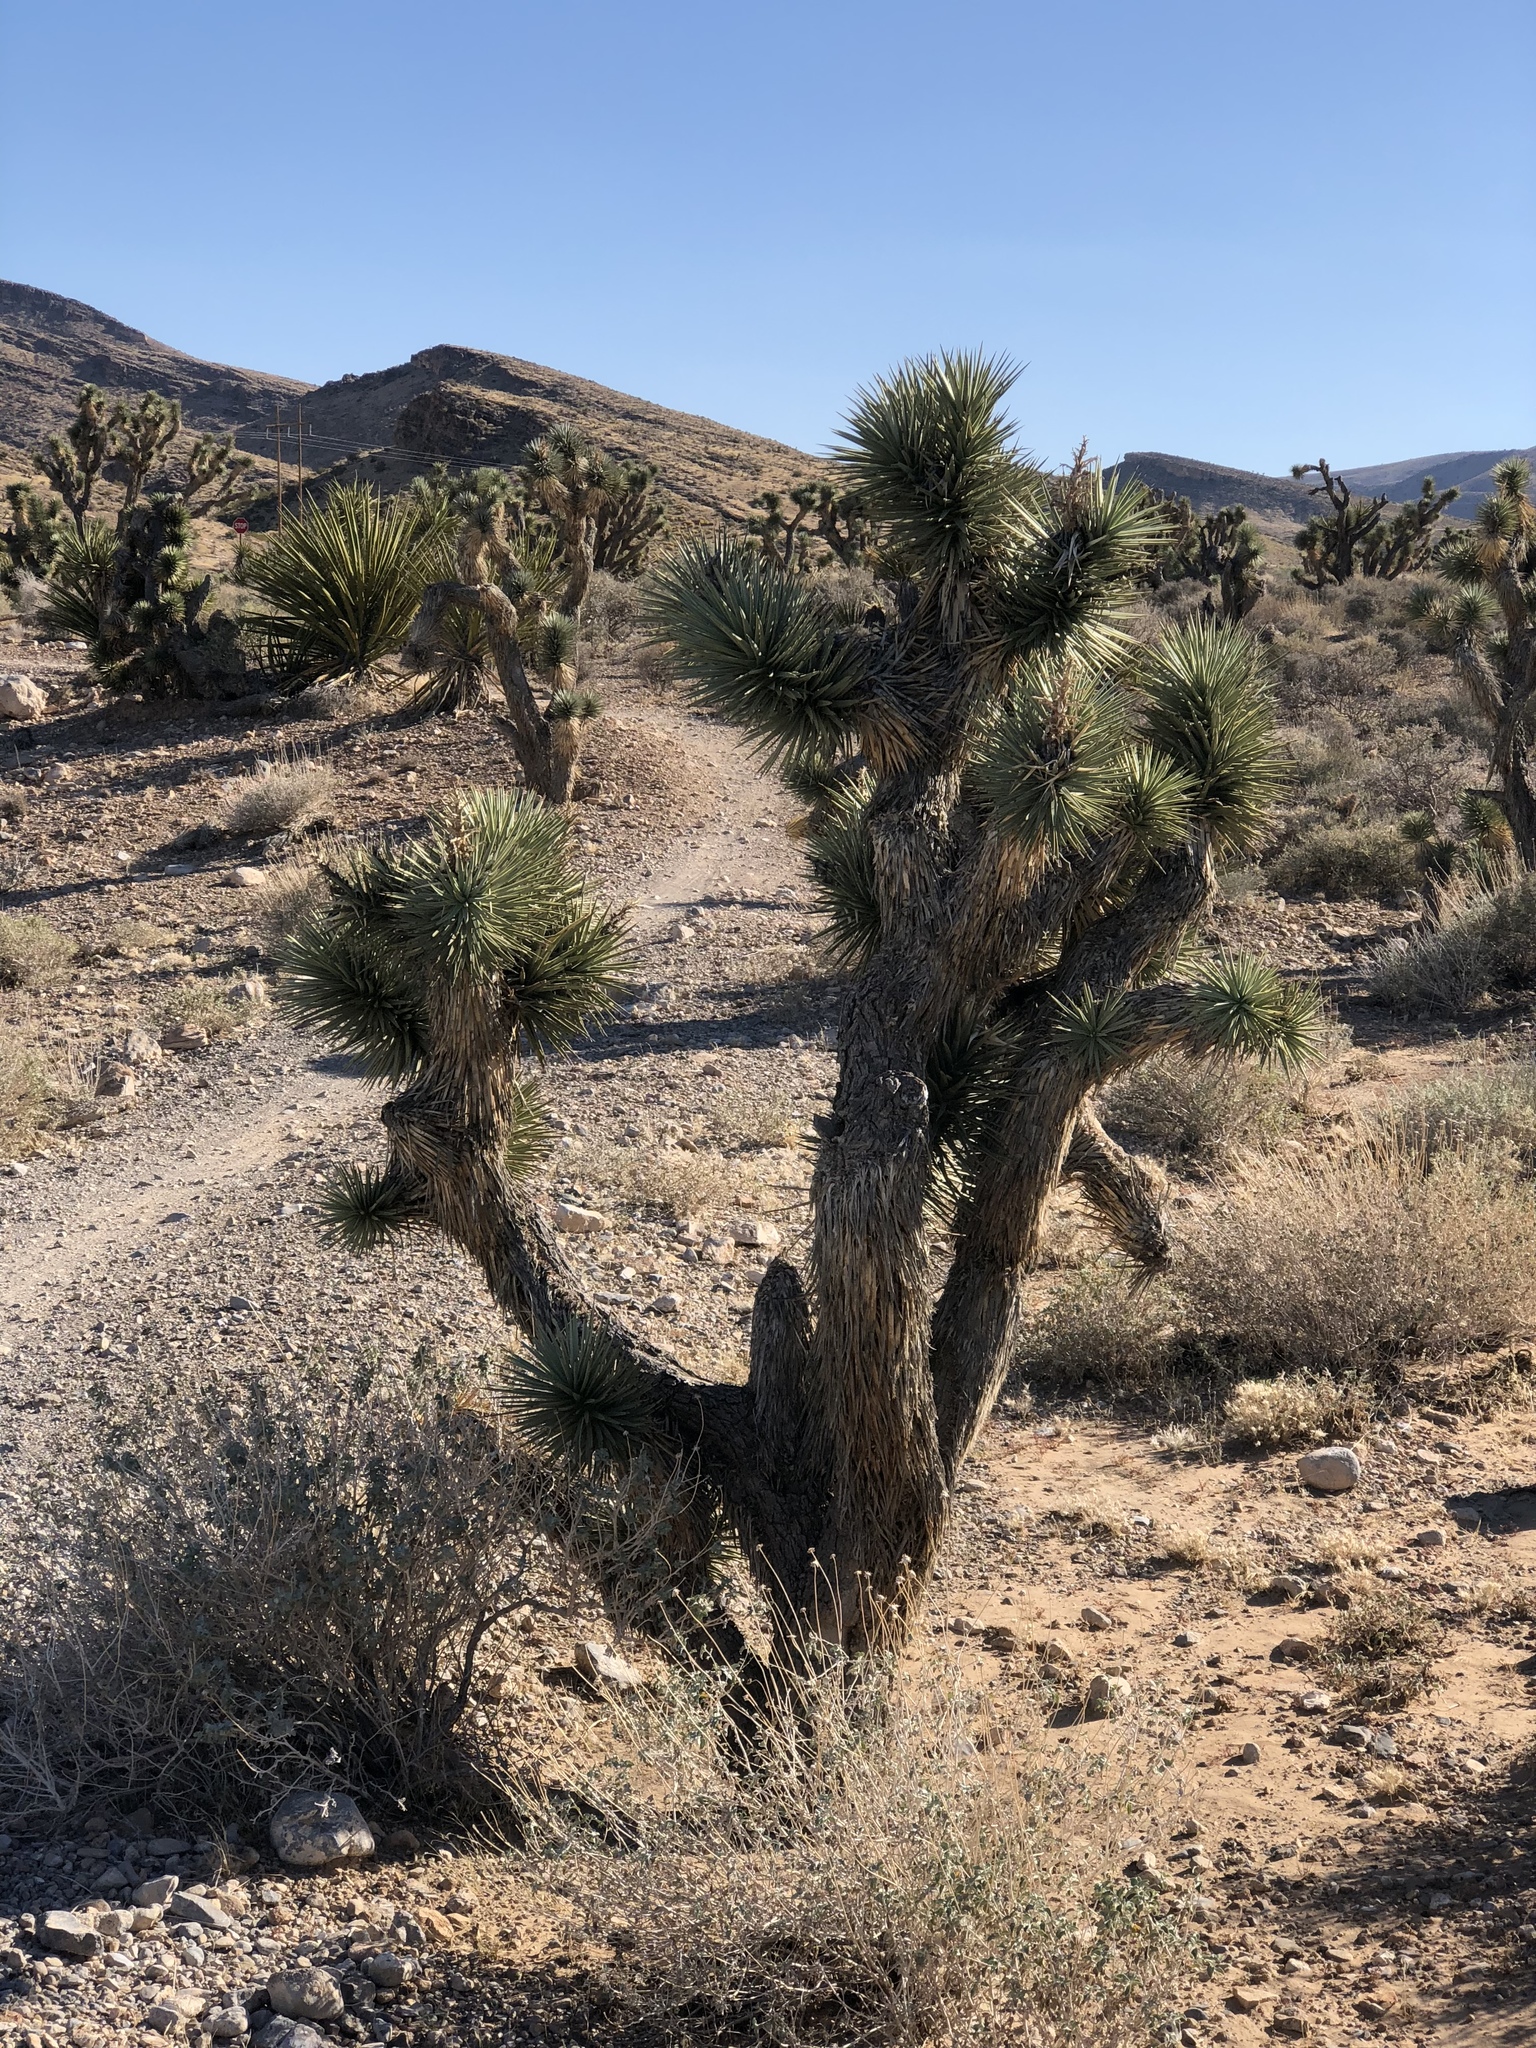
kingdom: Plantae
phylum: Tracheophyta
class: Liliopsida
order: Asparagales
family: Asparagaceae
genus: Yucca
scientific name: Yucca brevifolia
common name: Joshua tree
